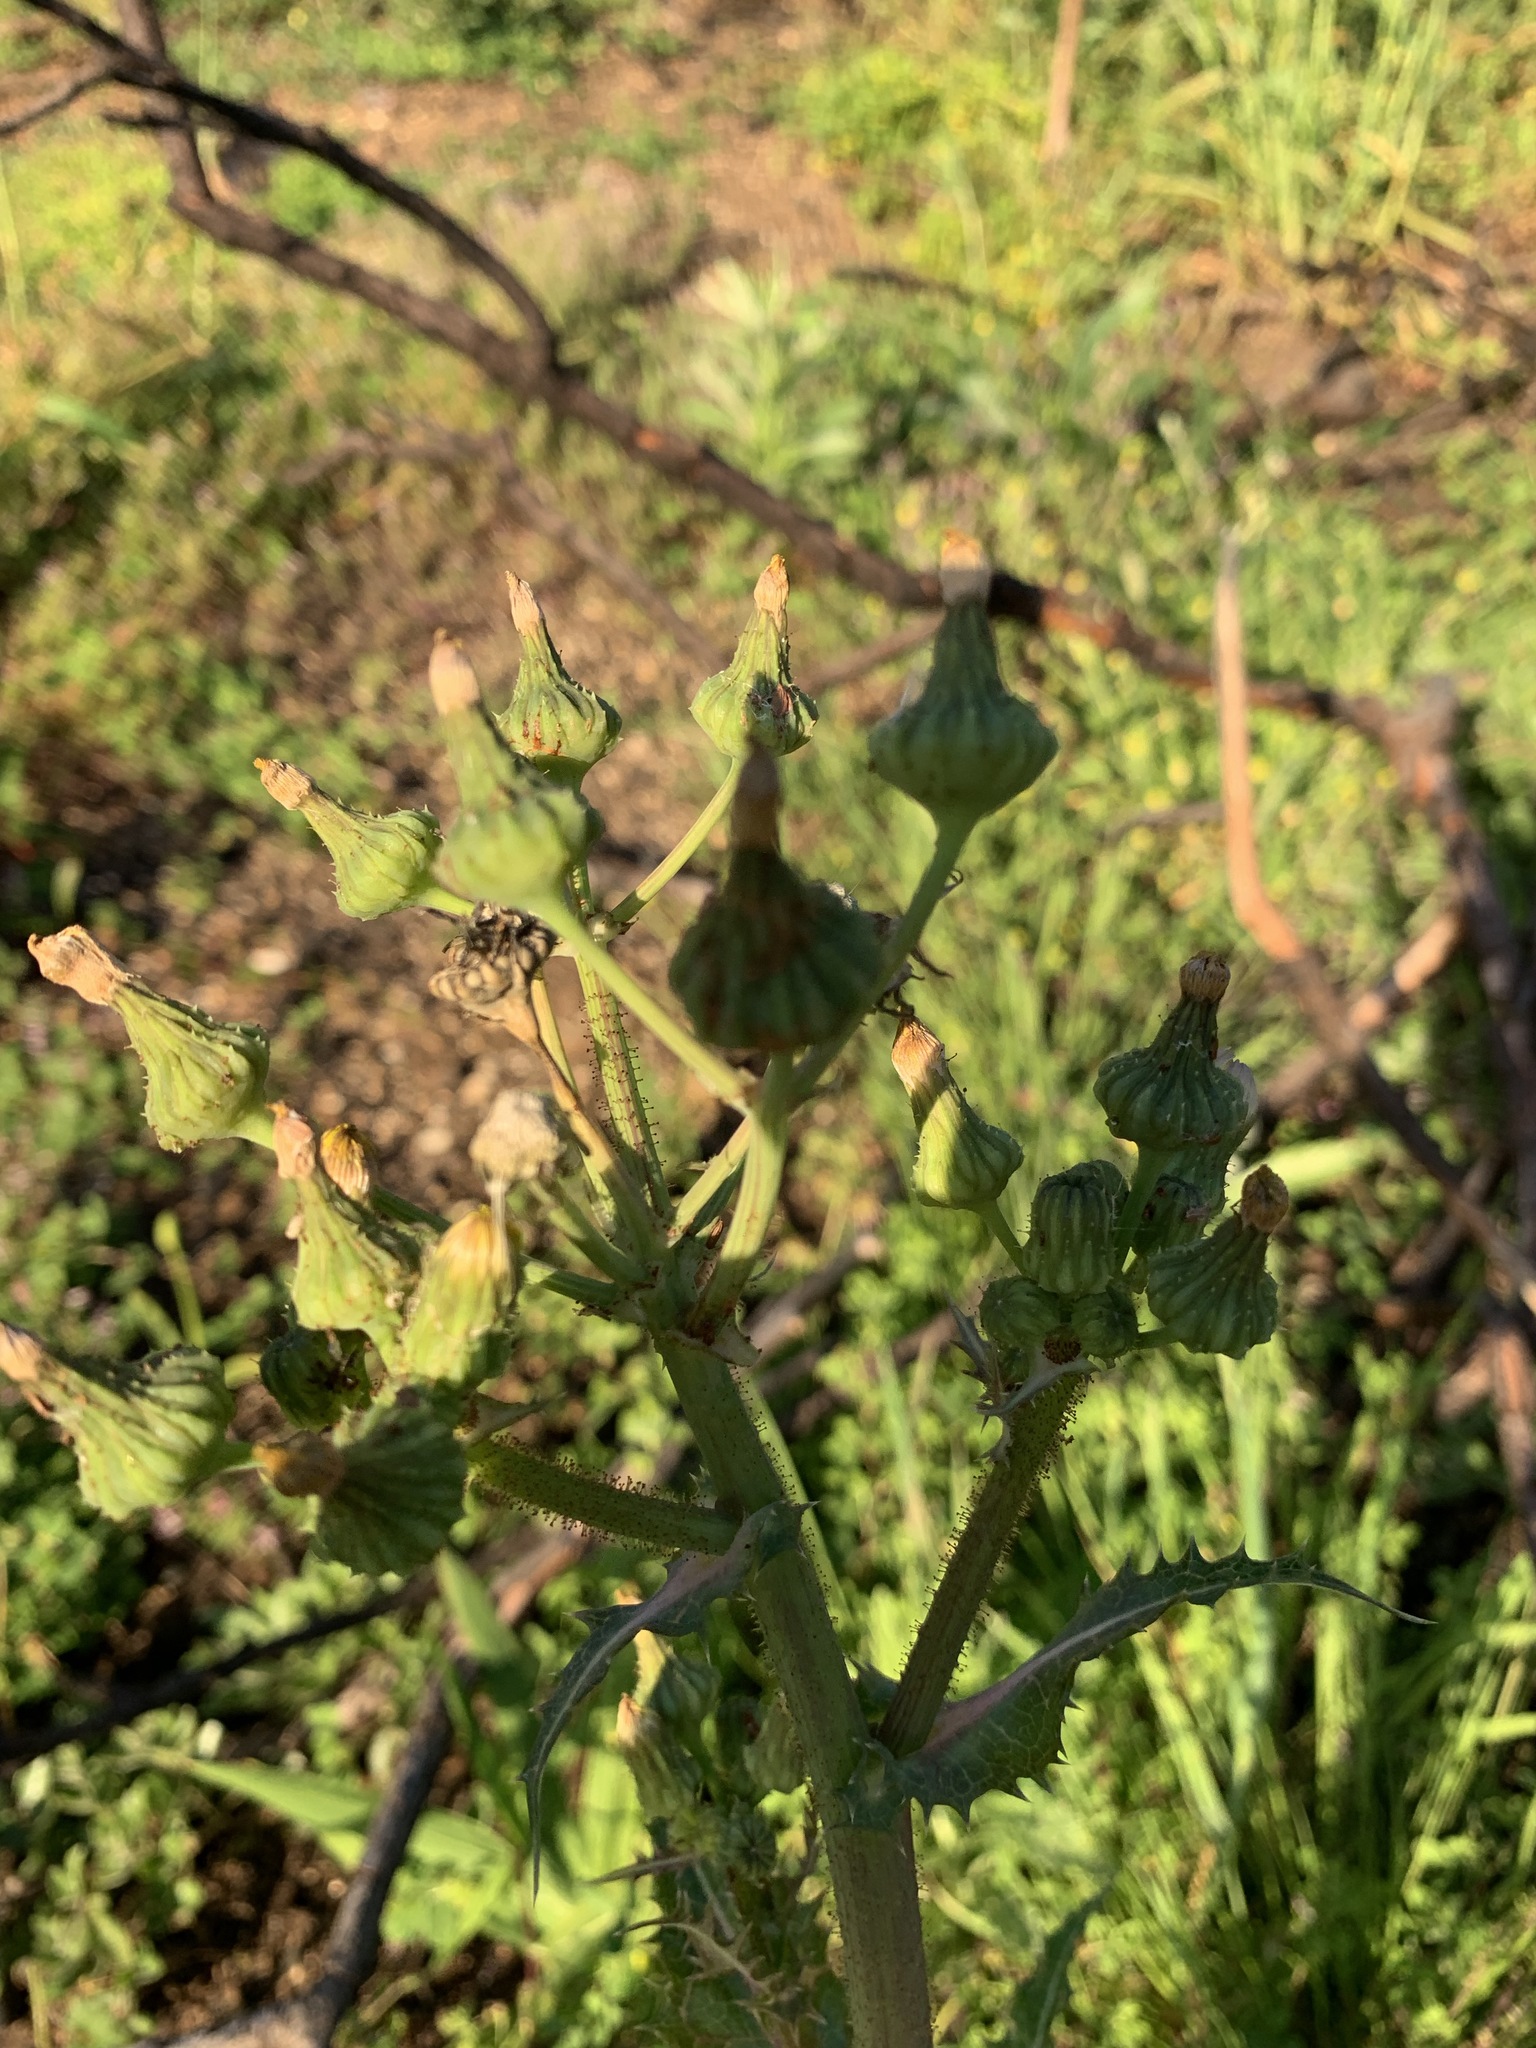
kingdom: Plantae
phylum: Tracheophyta
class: Magnoliopsida
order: Asterales
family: Asteraceae
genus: Sonchus
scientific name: Sonchus asper
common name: Prickly sow-thistle
